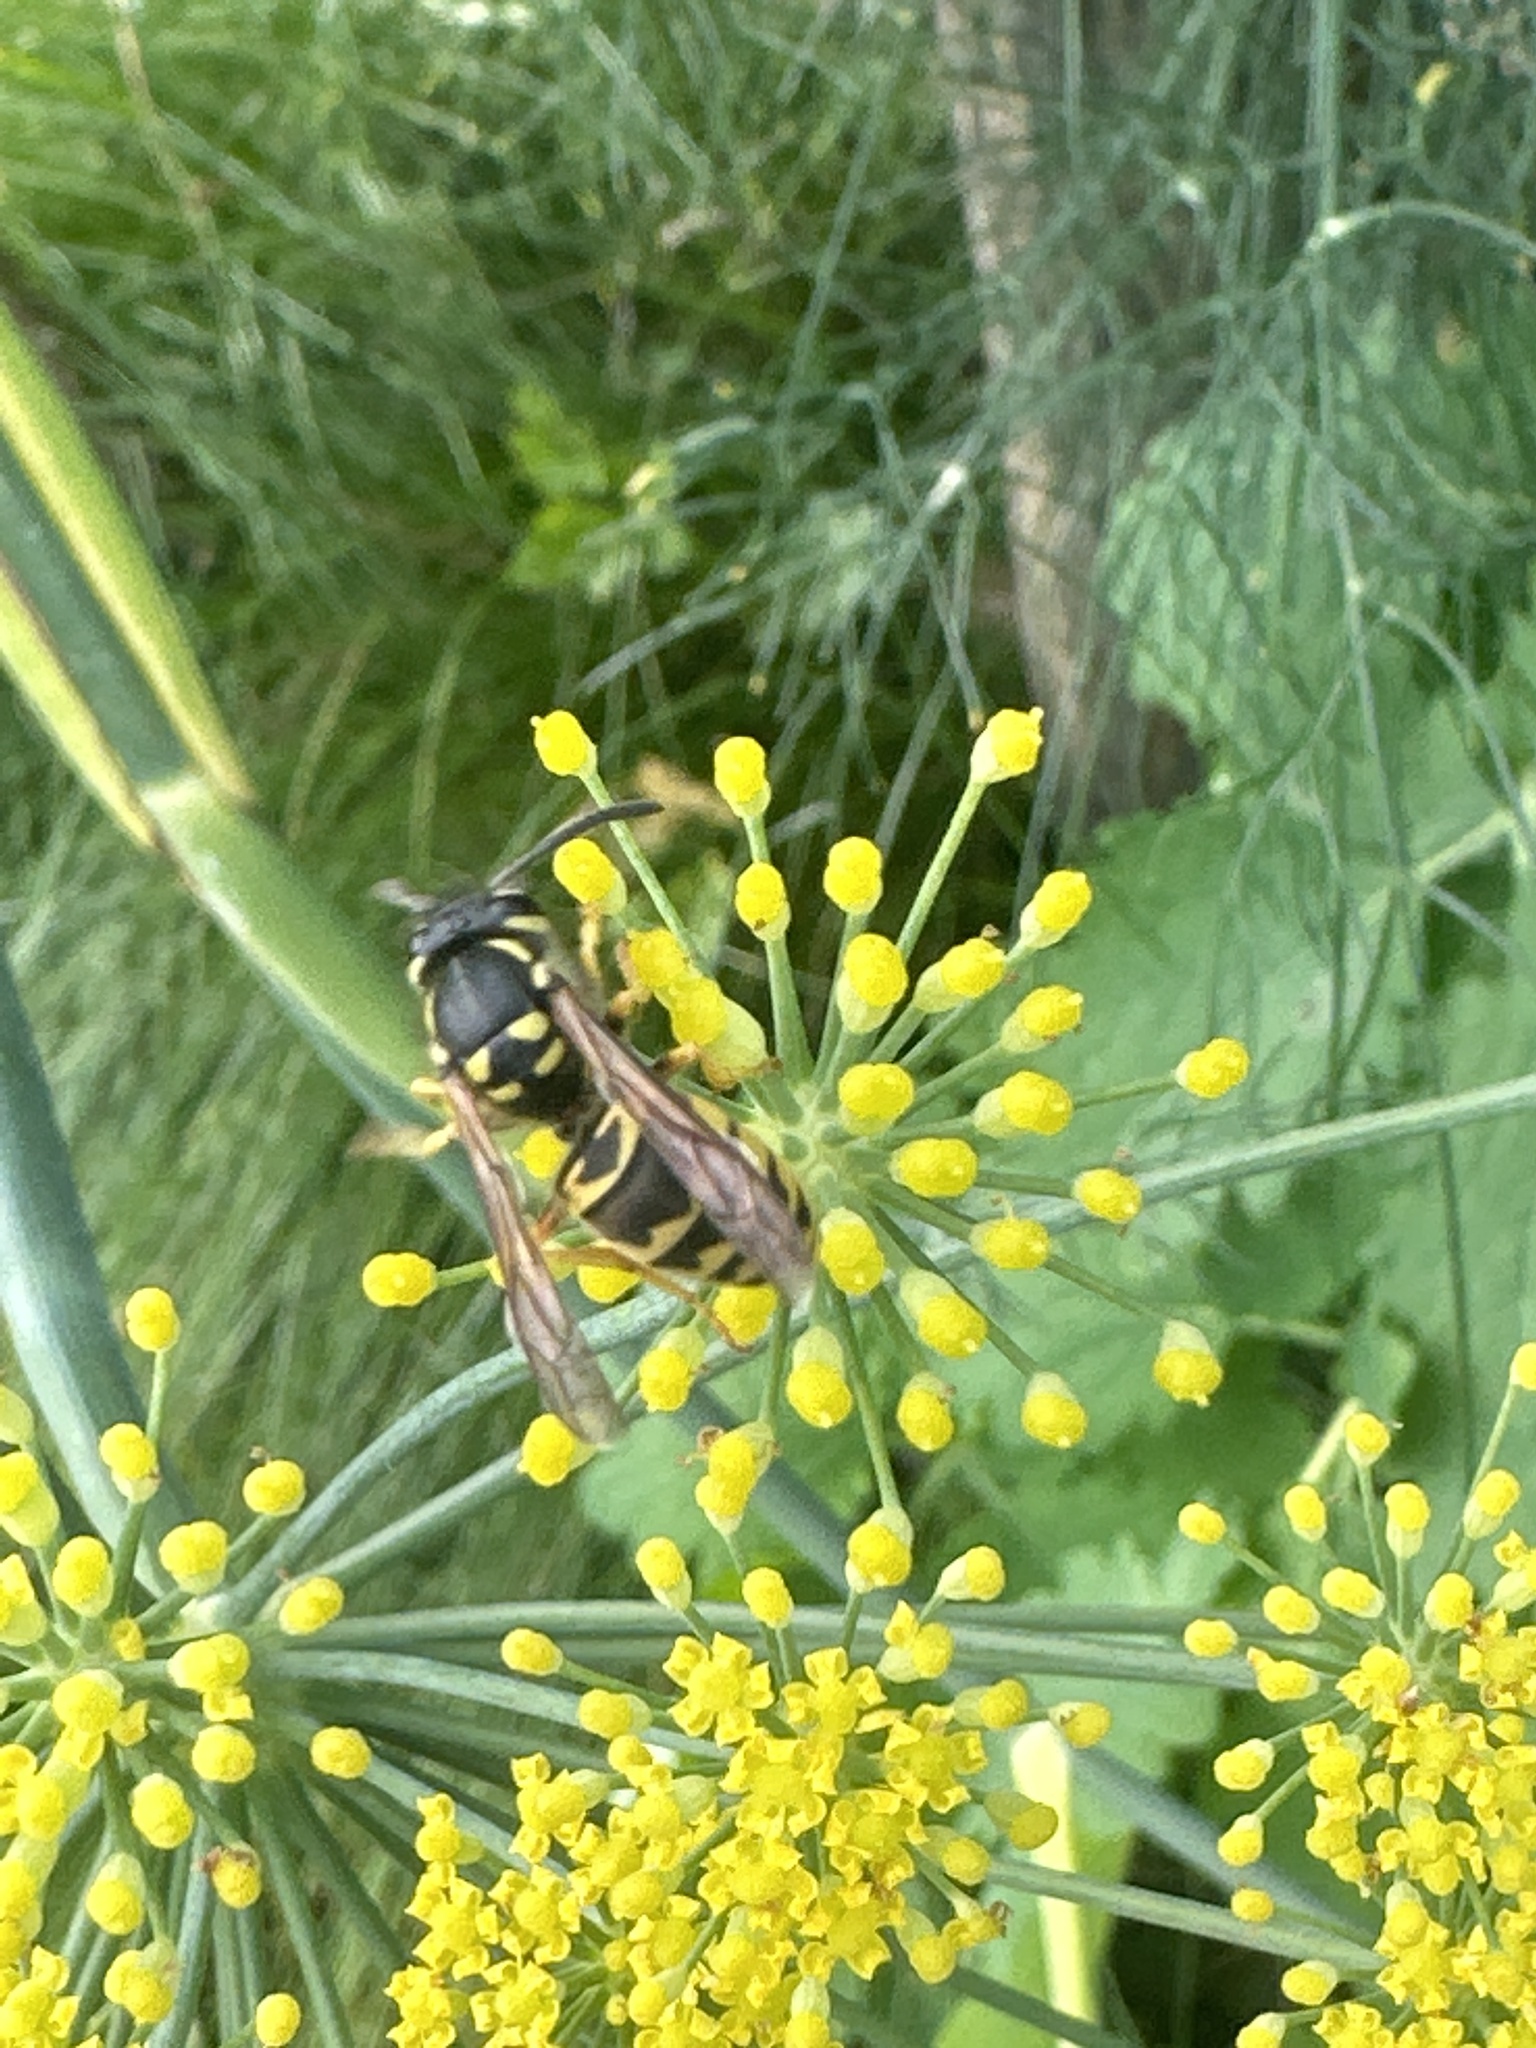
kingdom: Animalia
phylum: Arthropoda
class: Insecta
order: Hymenoptera
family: Vespidae
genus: Vespula
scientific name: Vespula germanica
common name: German wasp
